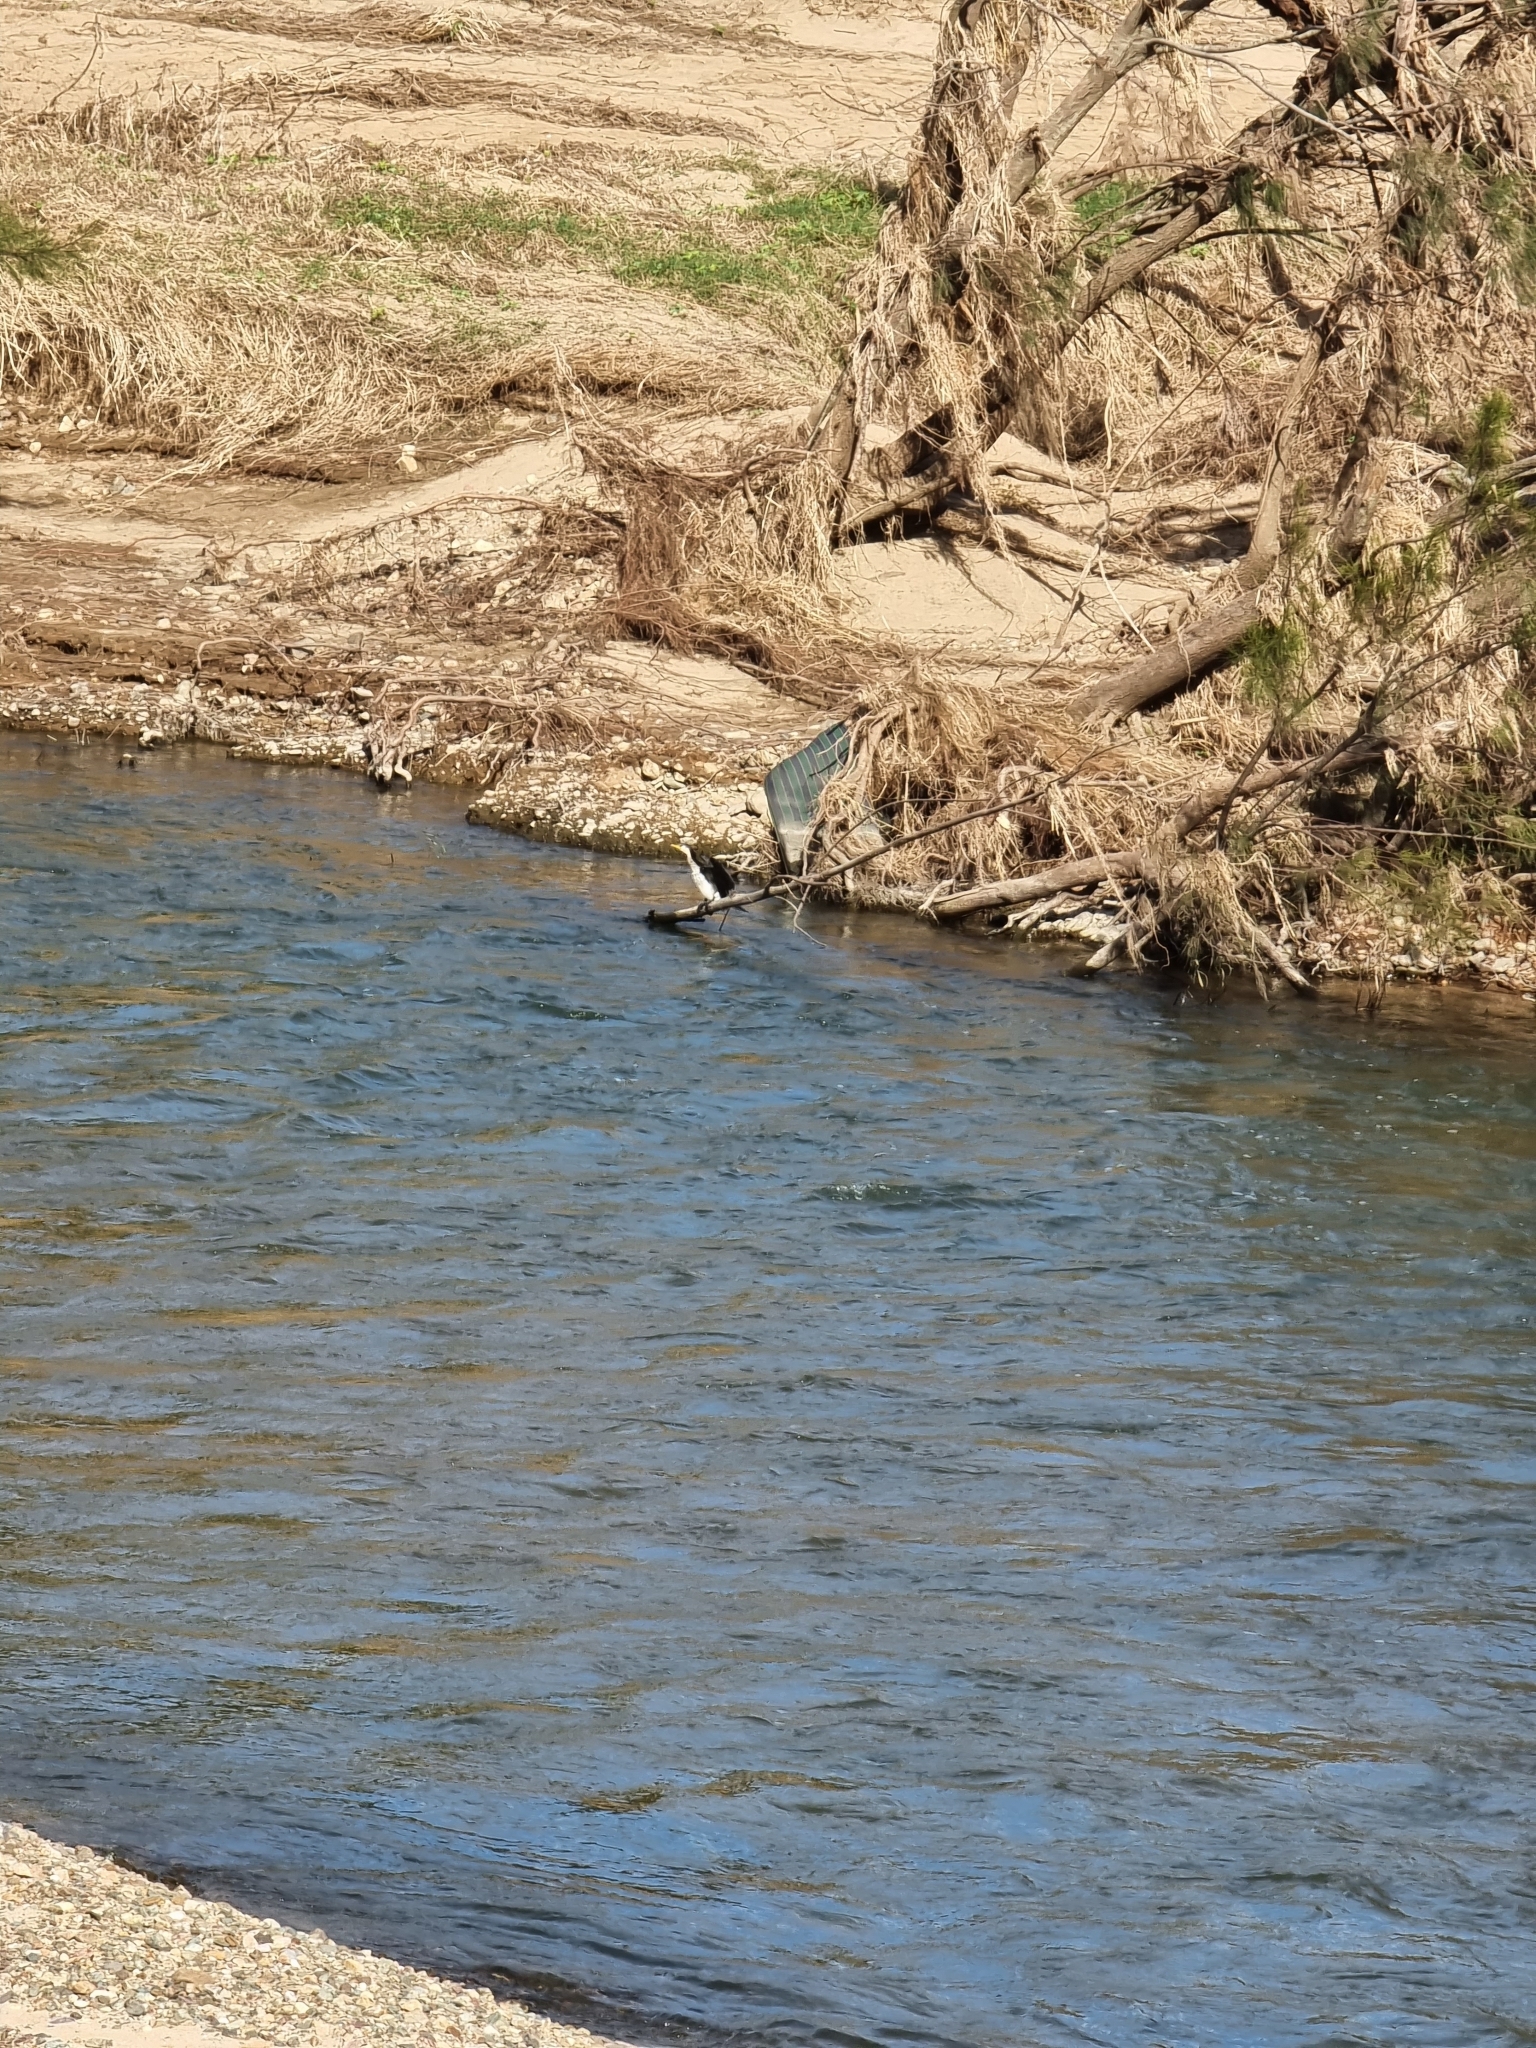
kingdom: Animalia
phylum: Chordata
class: Aves
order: Suliformes
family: Phalacrocoracidae
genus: Phalacrocorax
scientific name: Phalacrocorax varius
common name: Pied cormorant
